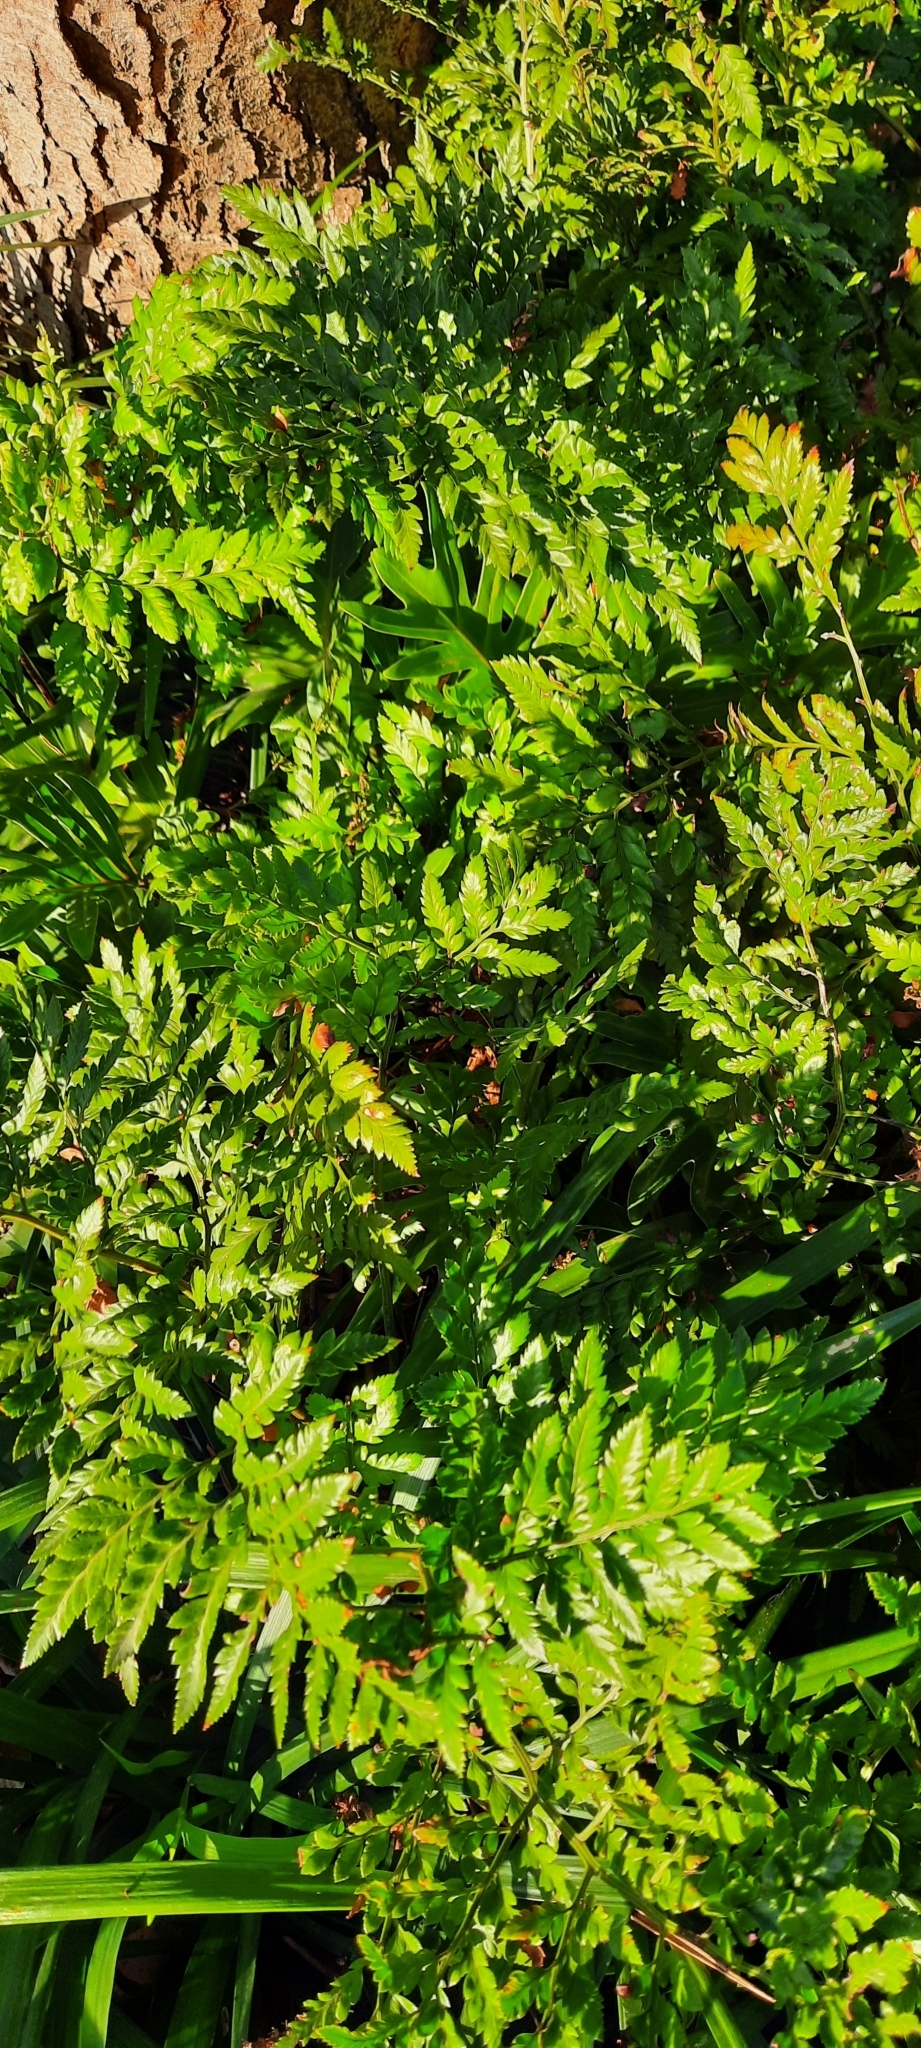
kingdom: Plantae
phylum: Tracheophyta
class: Polypodiopsida
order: Polypodiales
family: Dryopteridaceae
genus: Rumohra
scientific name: Rumohra adiantiformis
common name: Leather fern
